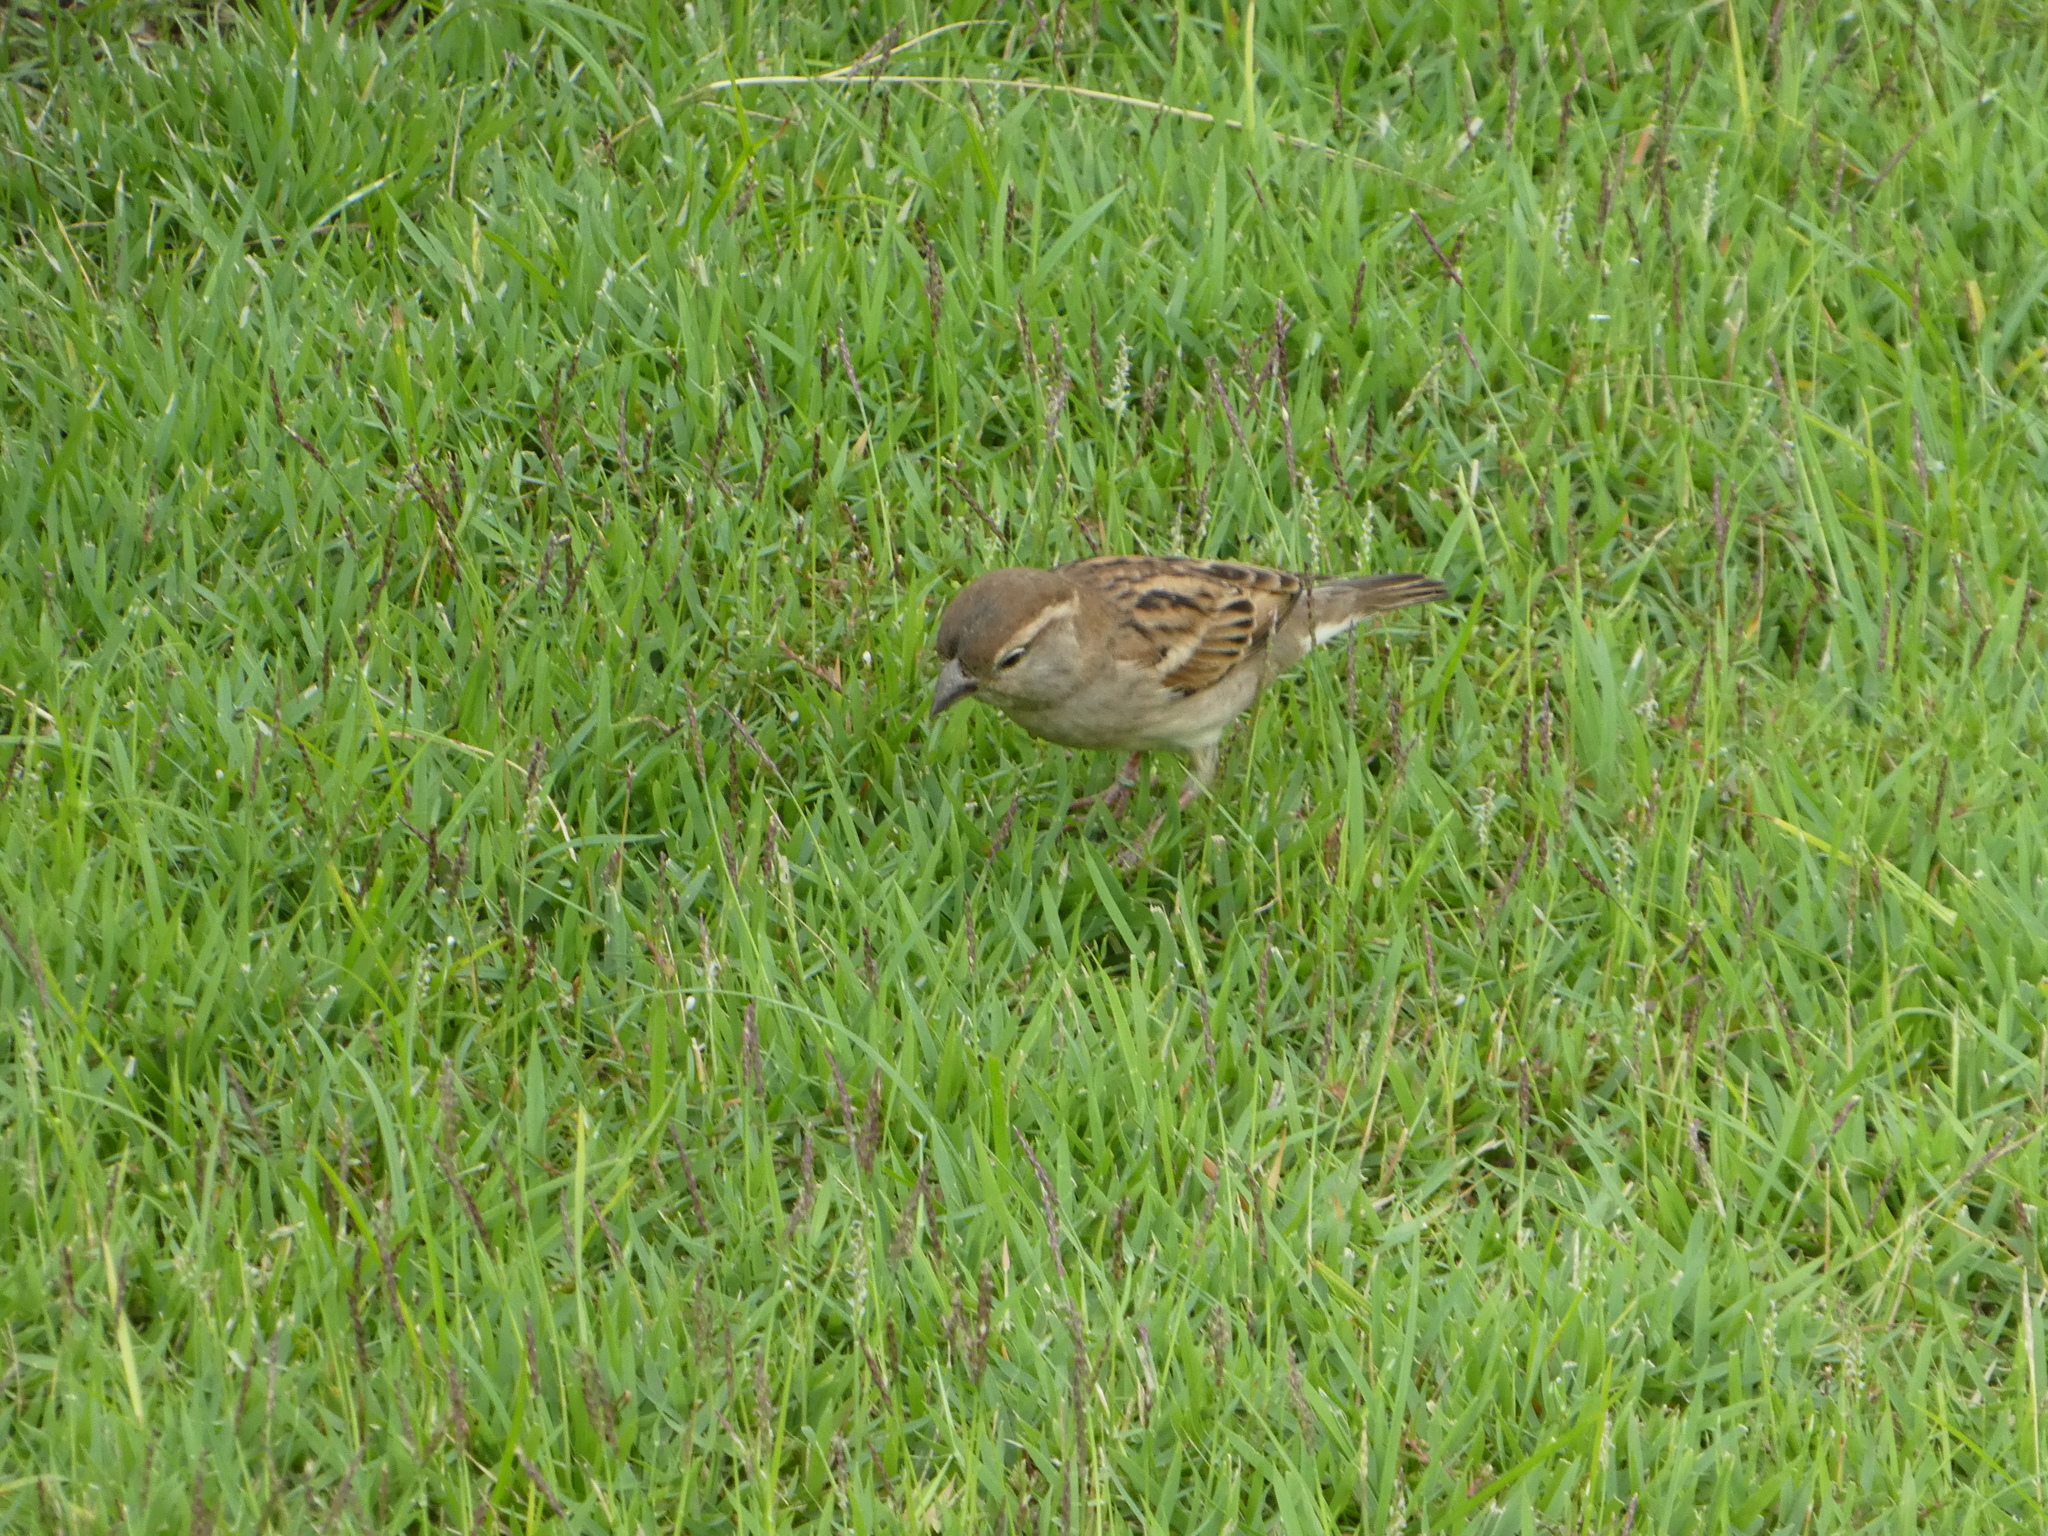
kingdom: Animalia
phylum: Chordata
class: Aves
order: Passeriformes
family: Passeridae
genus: Passer
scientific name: Passer domesticus
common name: House sparrow
